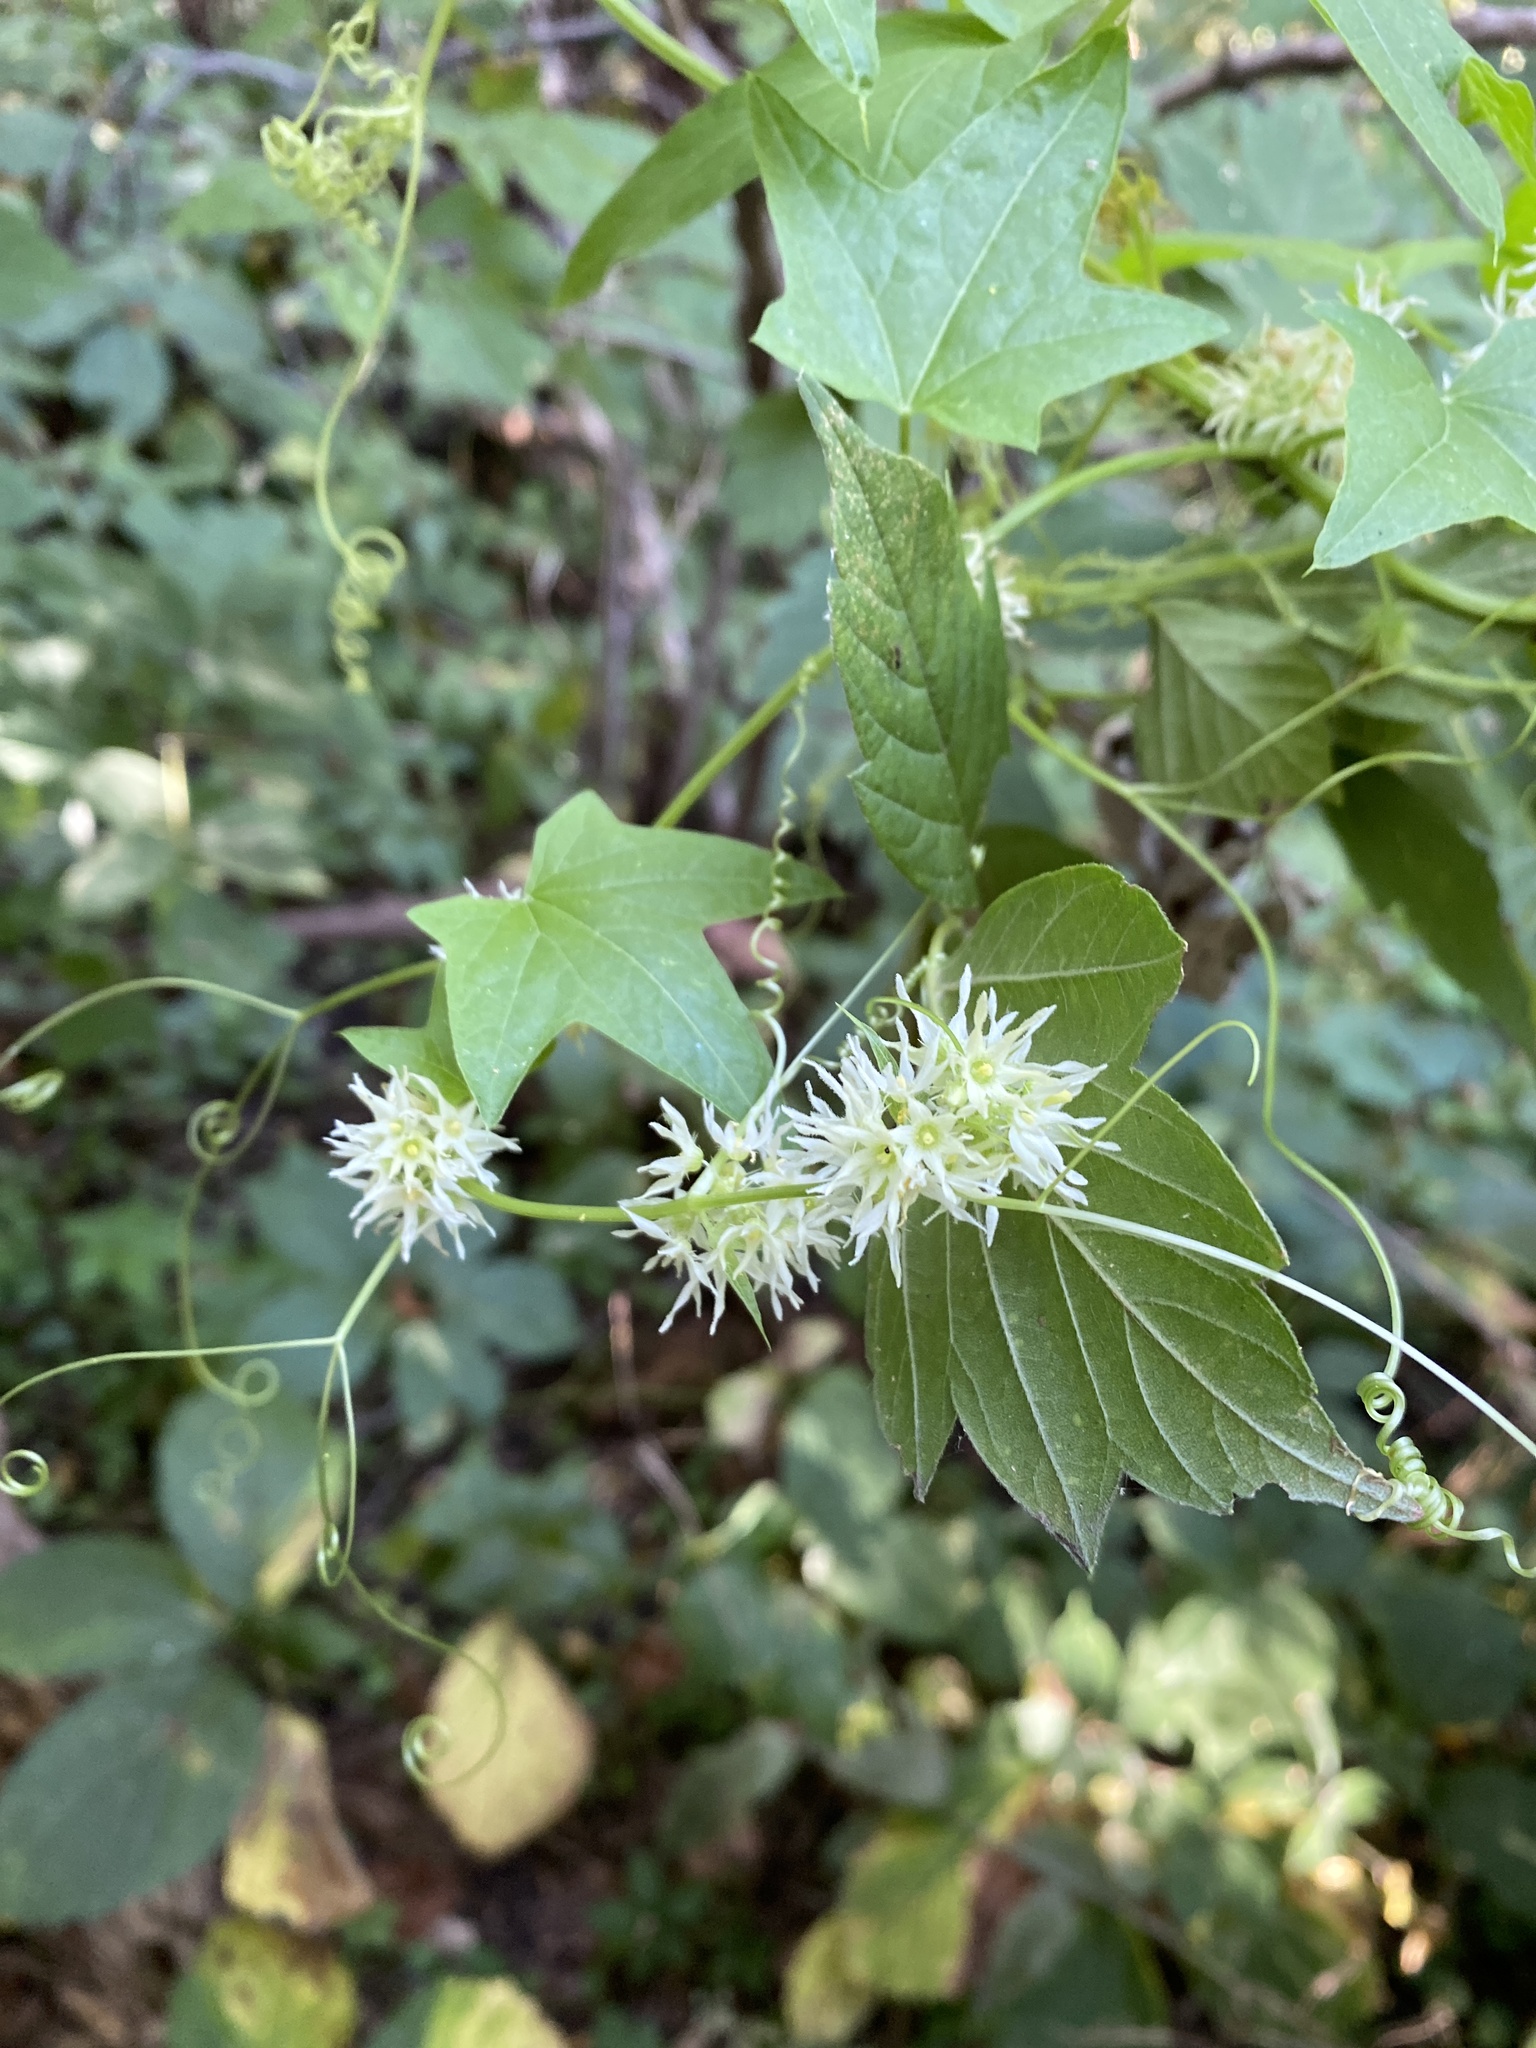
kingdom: Plantae
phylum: Tracheophyta
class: Magnoliopsida
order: Cucurbitales
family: Cucurbitaceae
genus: Echinocystis
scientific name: Echinocystis lobata
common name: Wild cucumber
